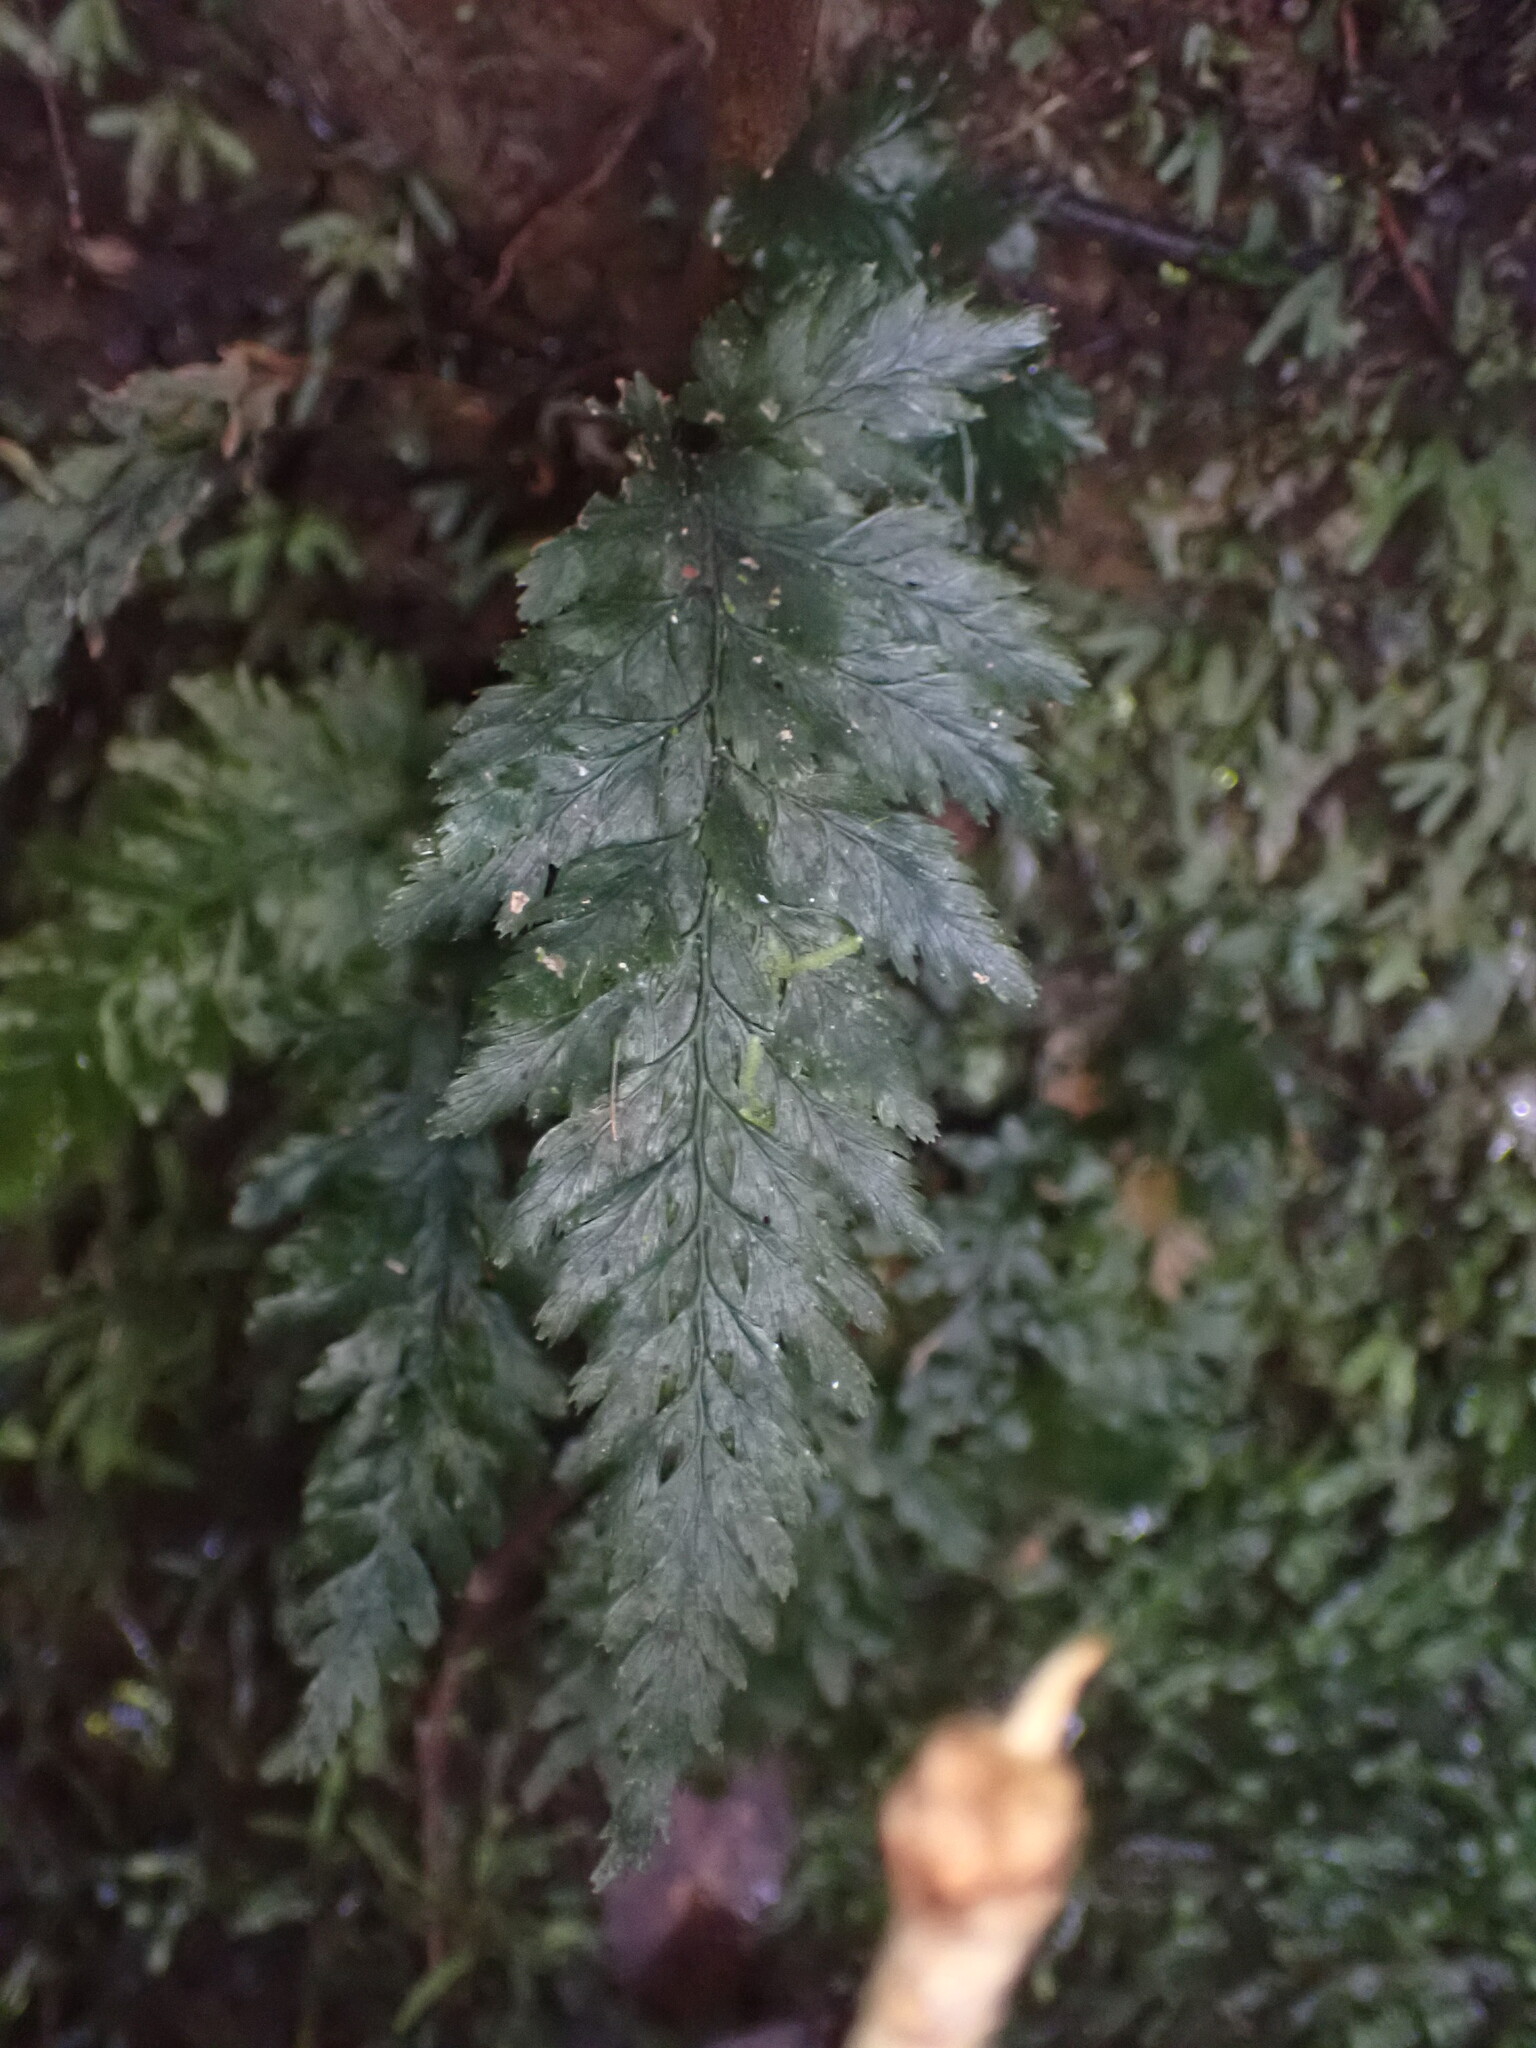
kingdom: Plantae
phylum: Tracheophyta
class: Polypodiopsida
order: Hymenophyllales
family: Hymenophyllaceae
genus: Abrodictyum
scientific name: Abrodictyum elongatum
